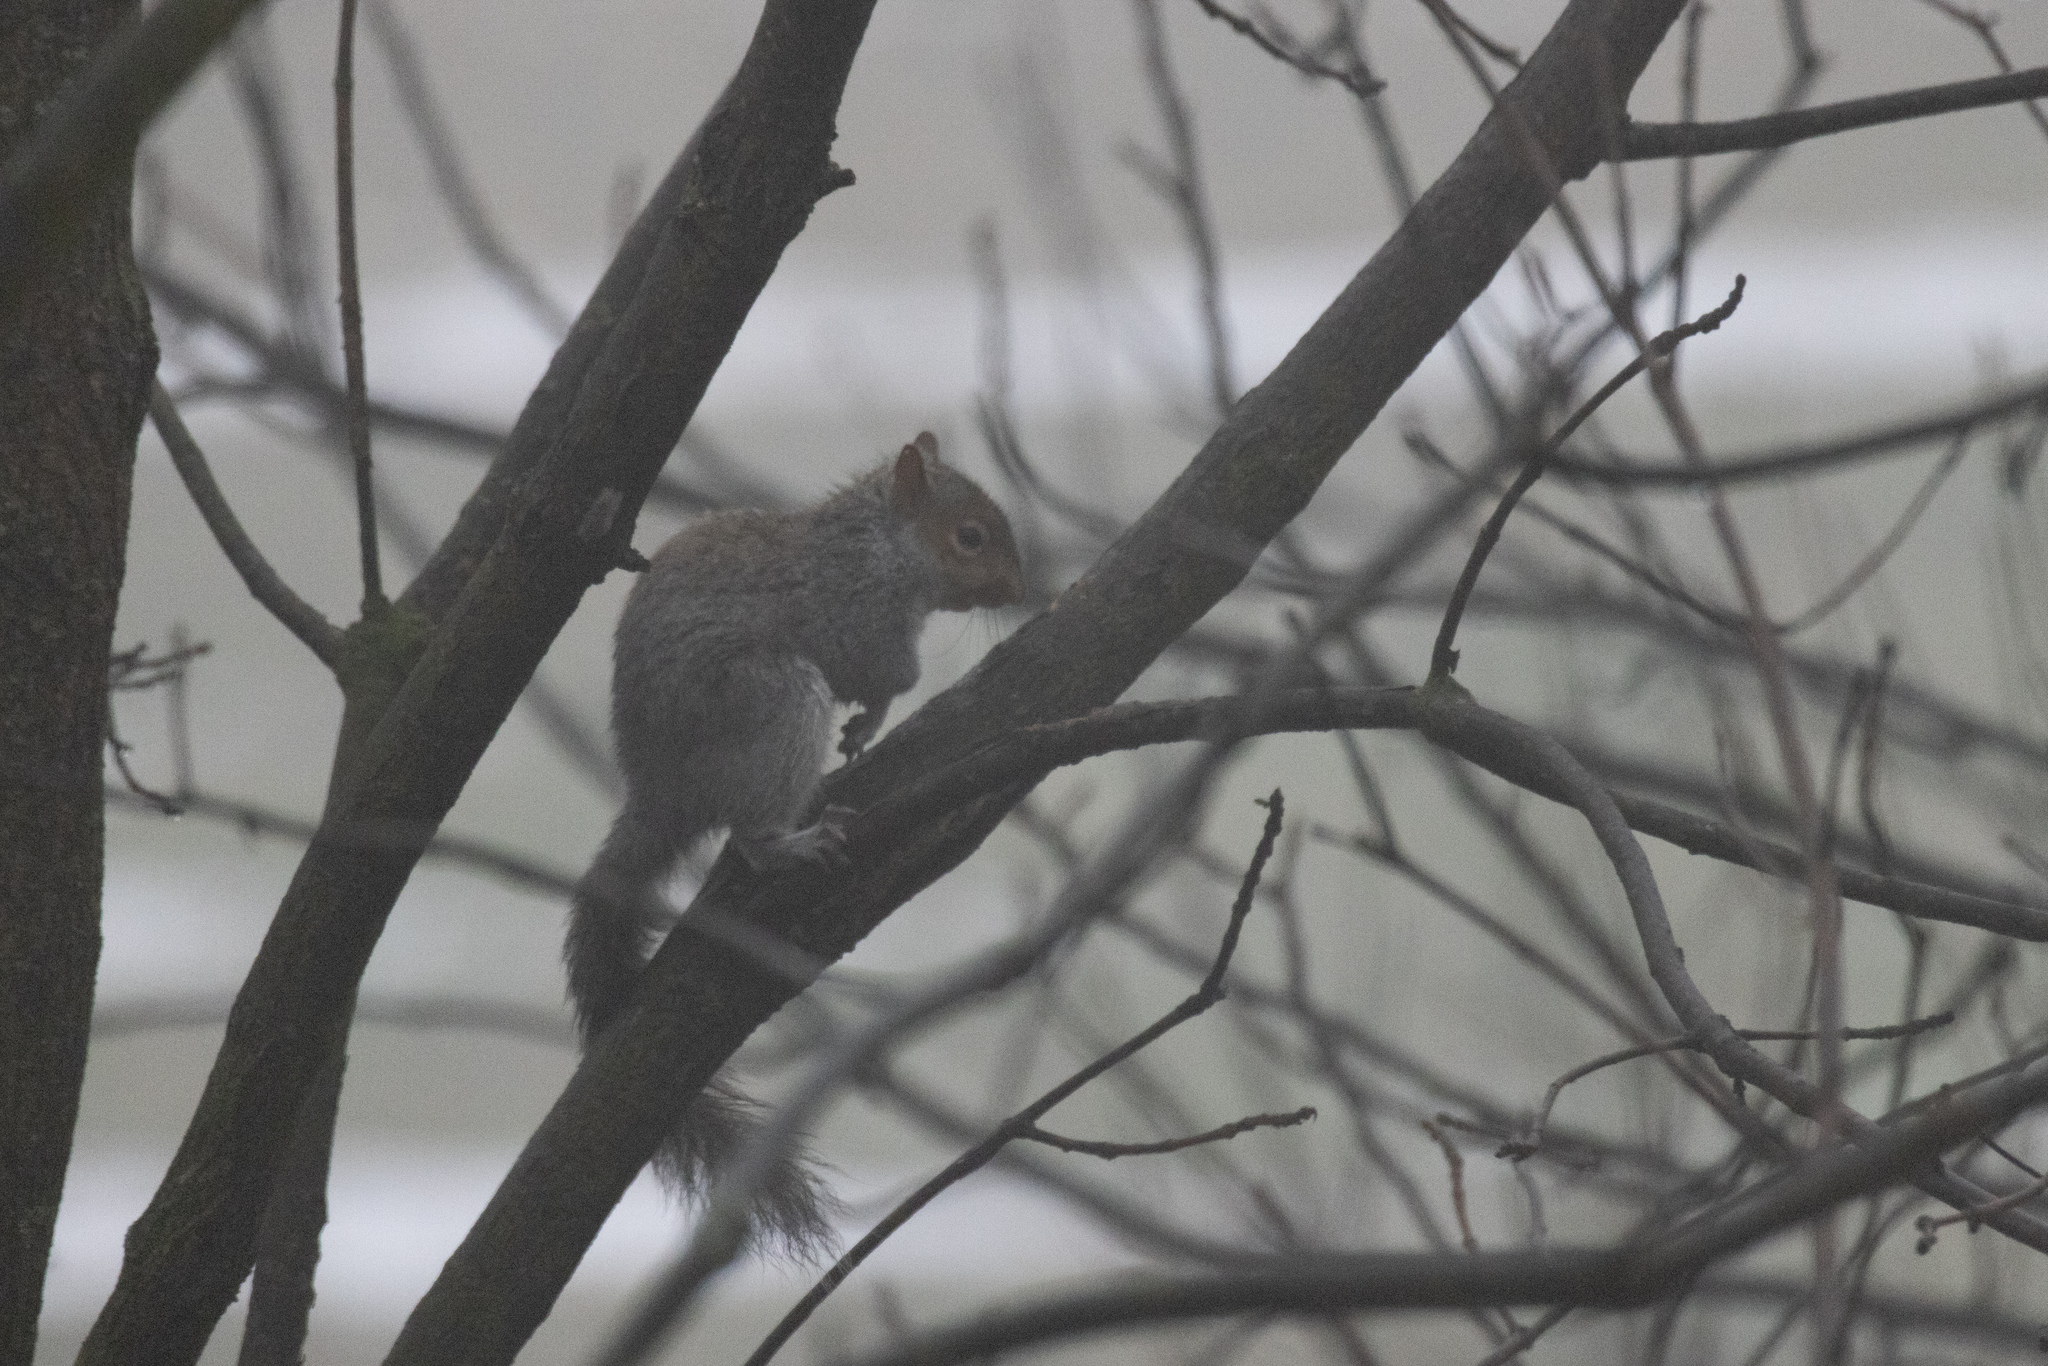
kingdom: Animalia
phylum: Chordata
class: Mammalia
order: Rodentia
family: Sciuridae
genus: Sciurus
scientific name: Sciurus carolinensis
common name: Eastern gray squirrel
